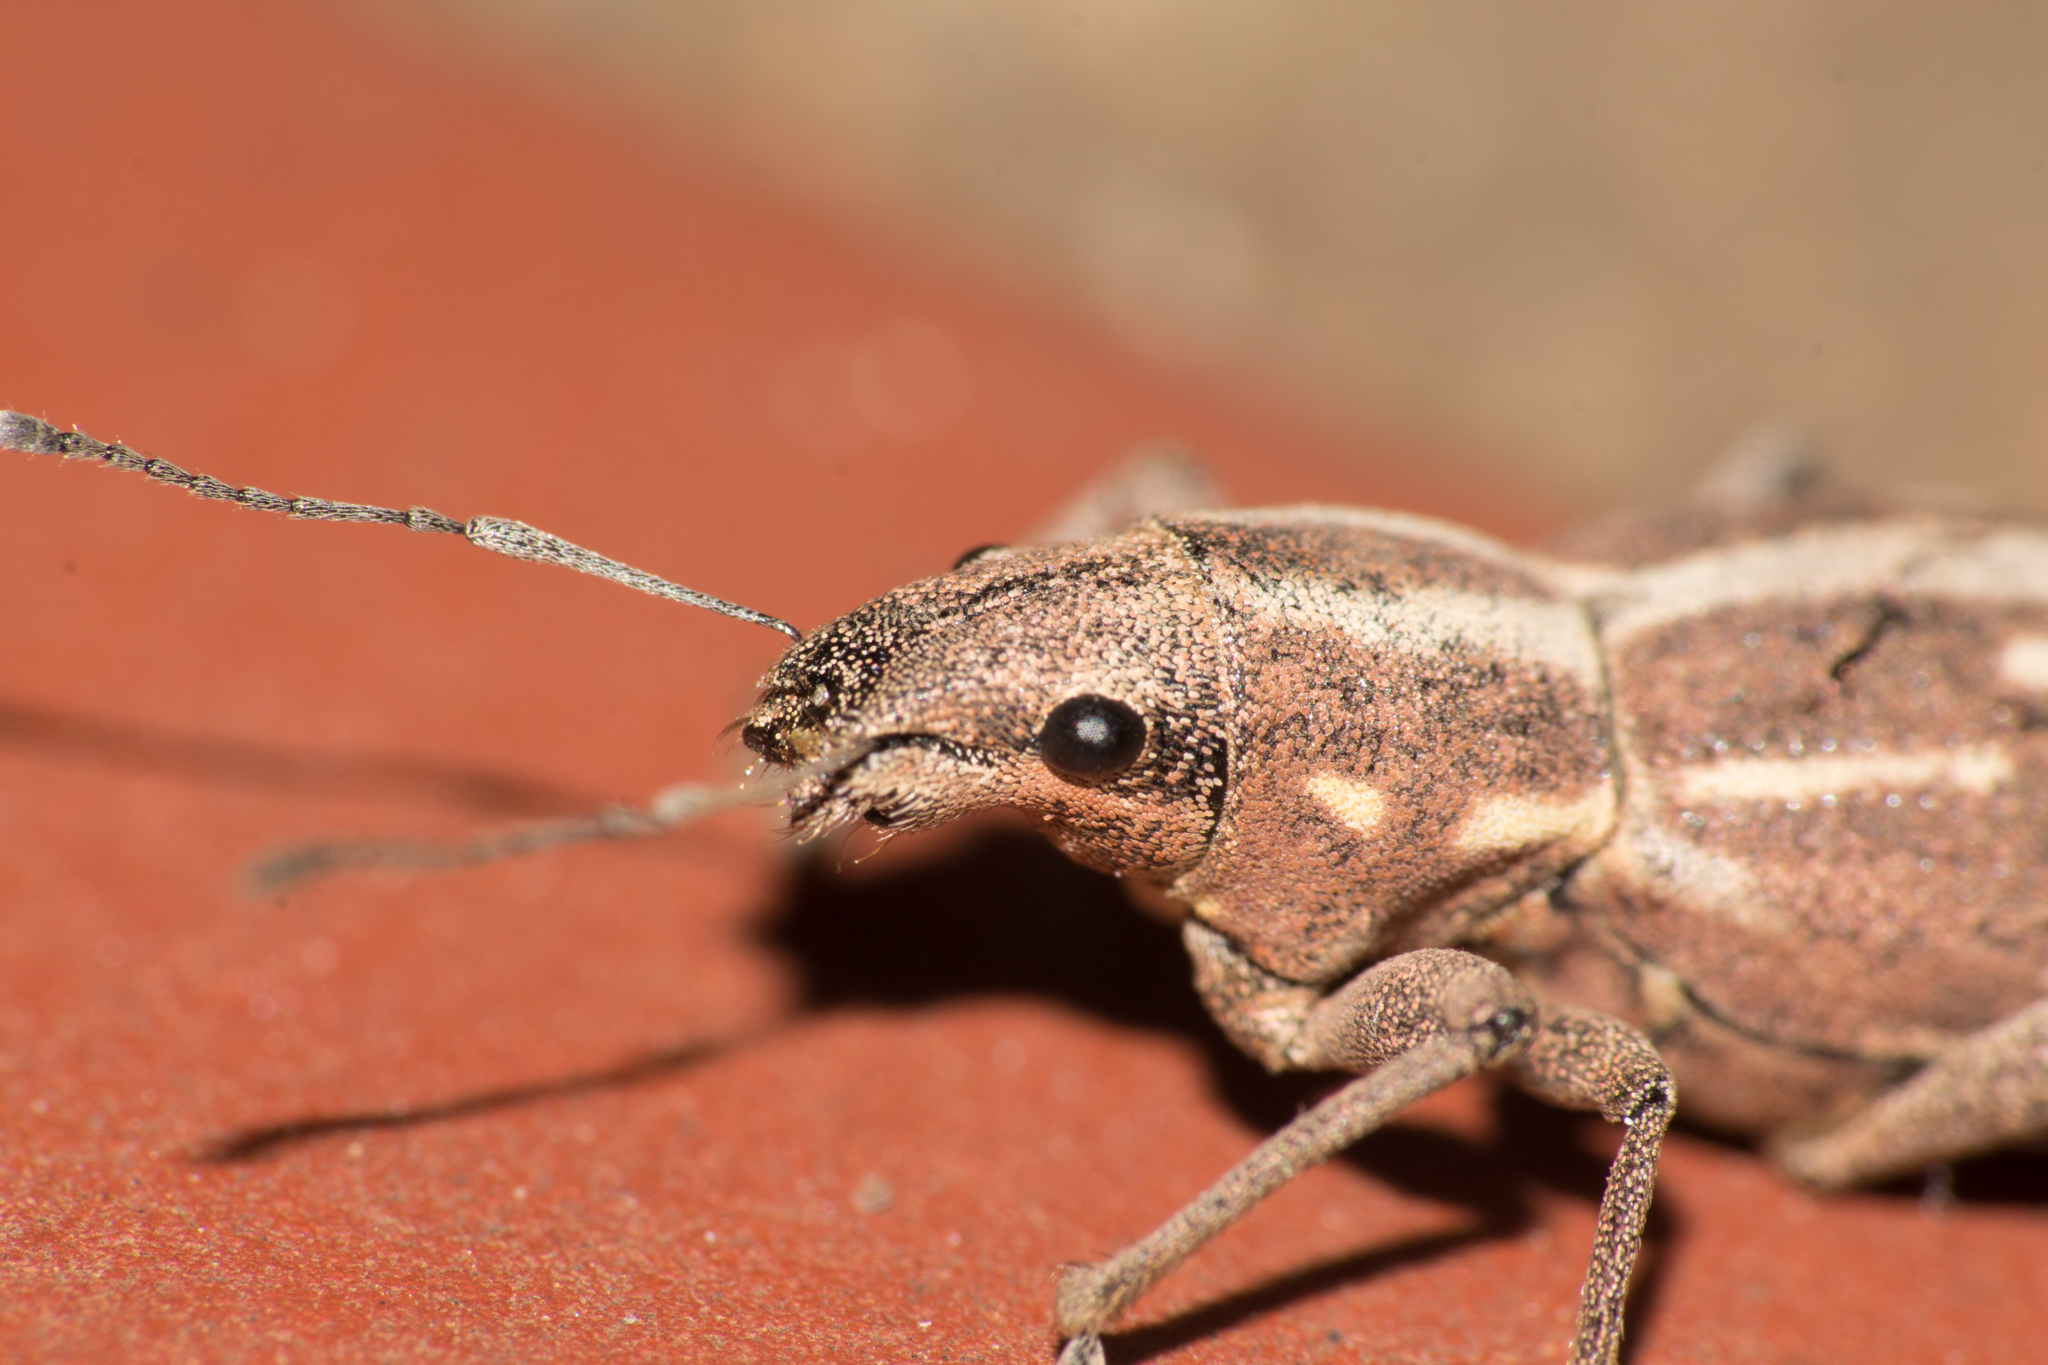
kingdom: Animalia
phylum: Arthropoda
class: Insecta
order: Coleoptera
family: Curculionidae
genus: Naupactus
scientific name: Naupactus dissimilis
